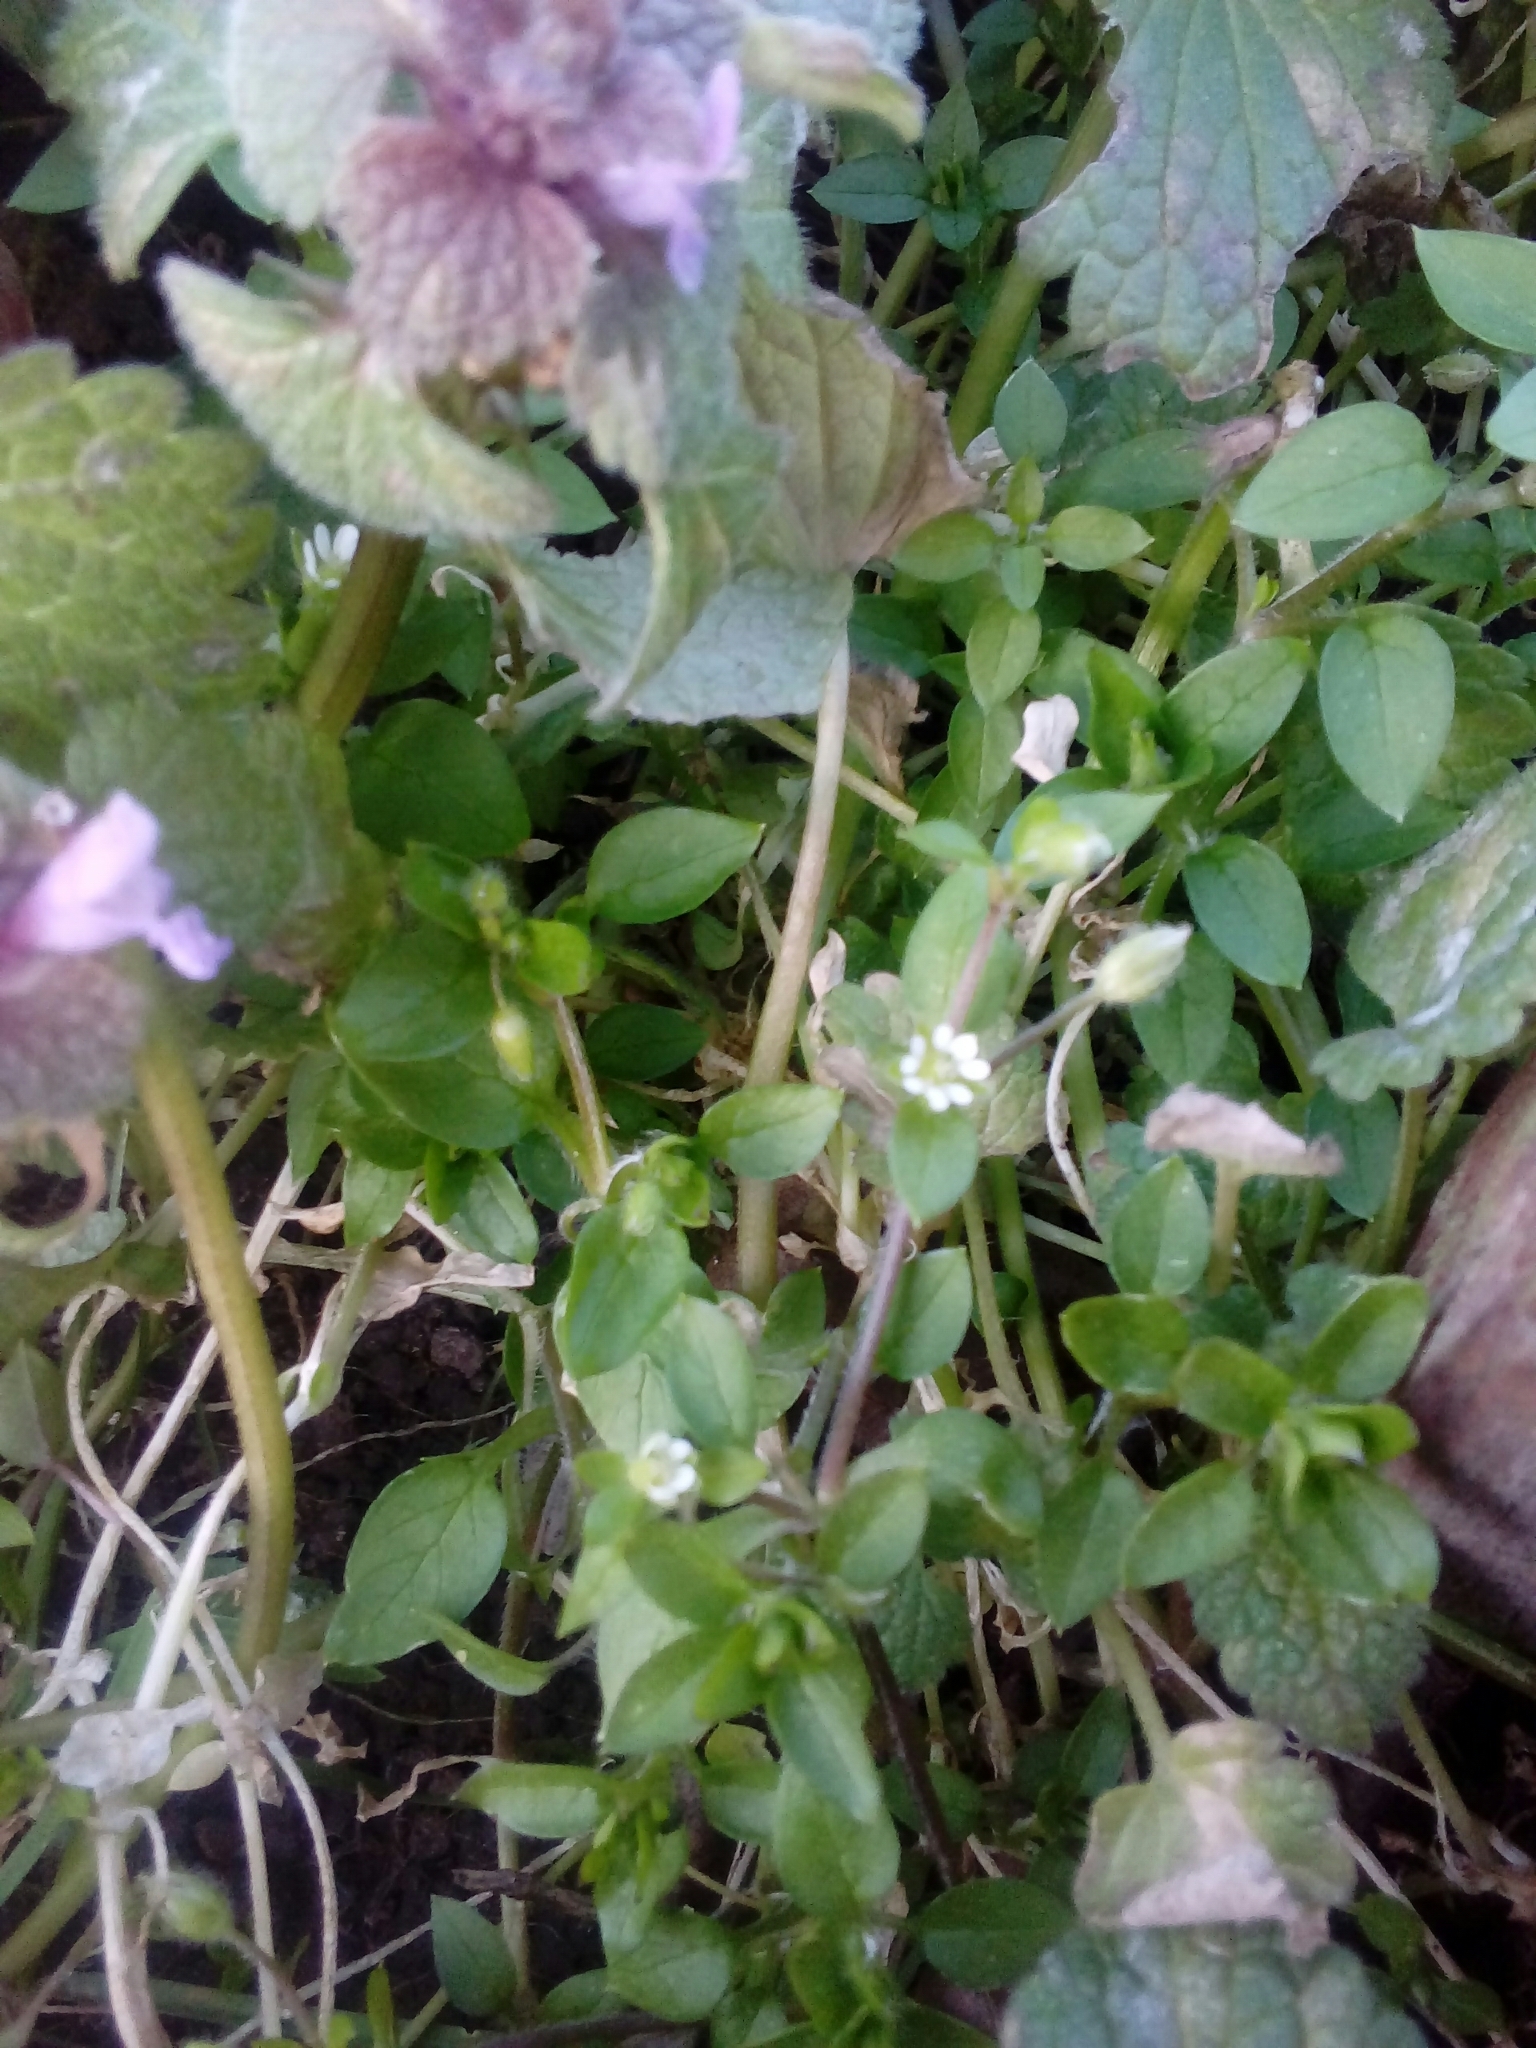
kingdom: Plantae
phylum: Tracheophyta
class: Magnoliopsida
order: Caryophyllales
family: Caryophyllaceae
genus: Stellaria
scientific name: Stellaria media
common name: Common chickweed
